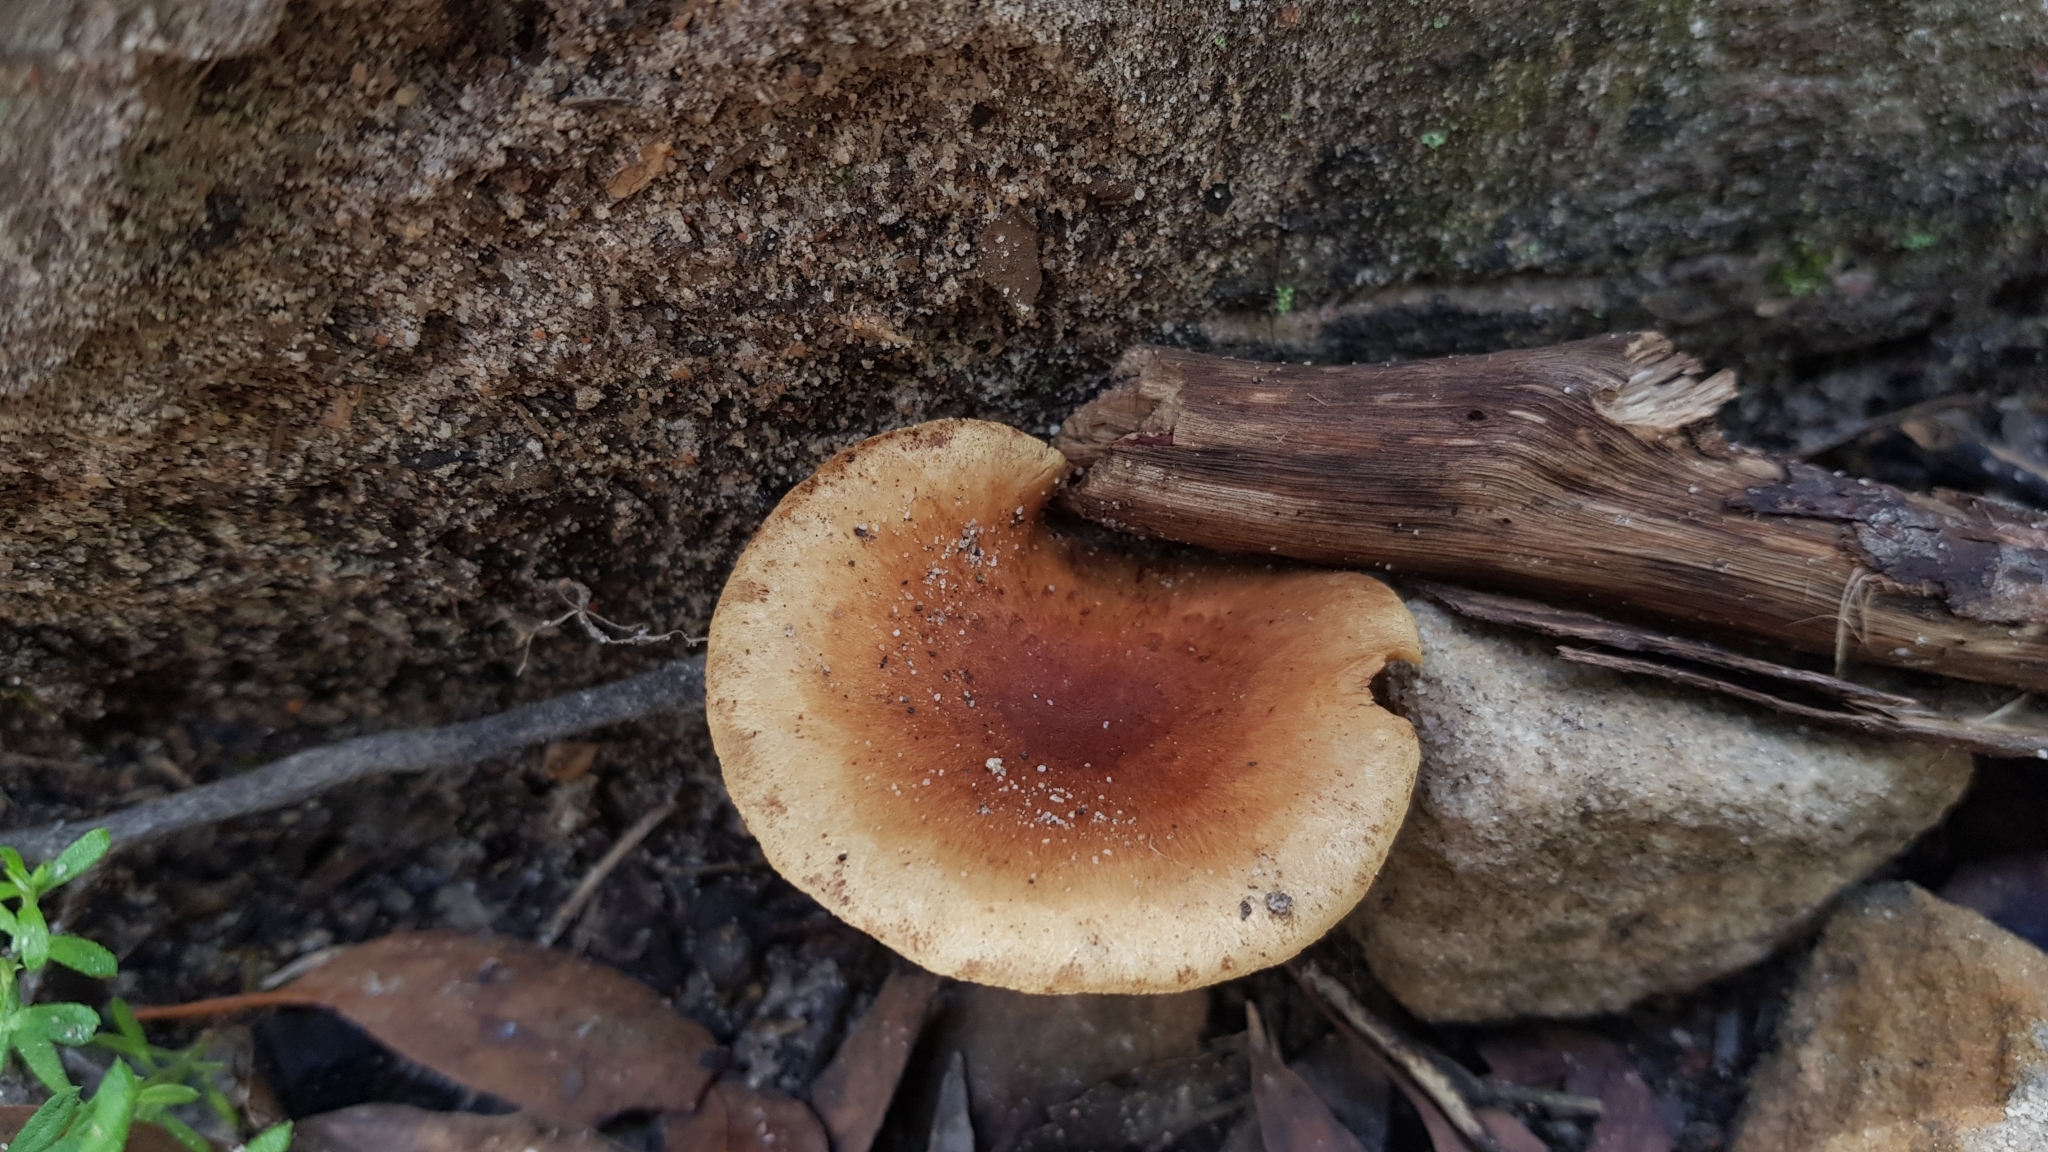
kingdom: Fungi
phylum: Basidiomycota
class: Agaricomycetes
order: Agaricales
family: Strophariaceae
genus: Pholiota
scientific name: Pholiota communis
